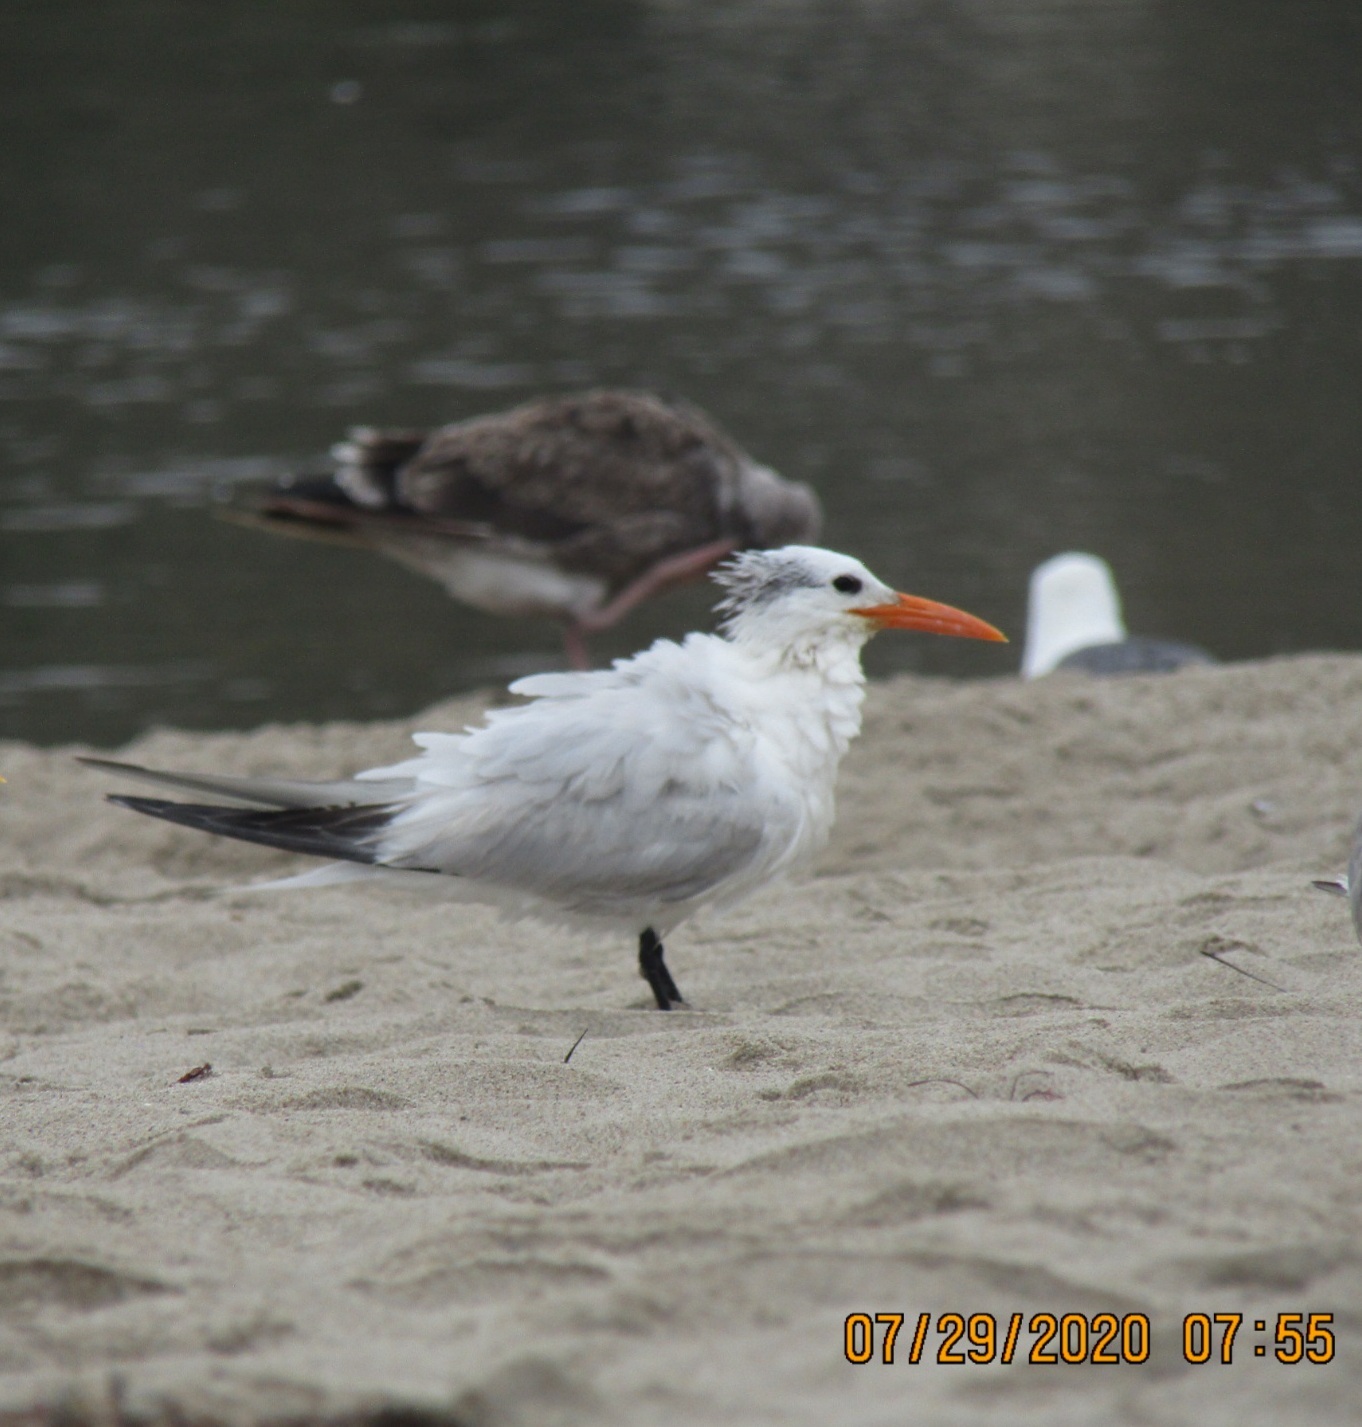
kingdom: Animalia
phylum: Chordata
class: Aves
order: Charadriiformes
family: Laridae
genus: Thalasseus
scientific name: Thalasseus maximus
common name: Royal tern
